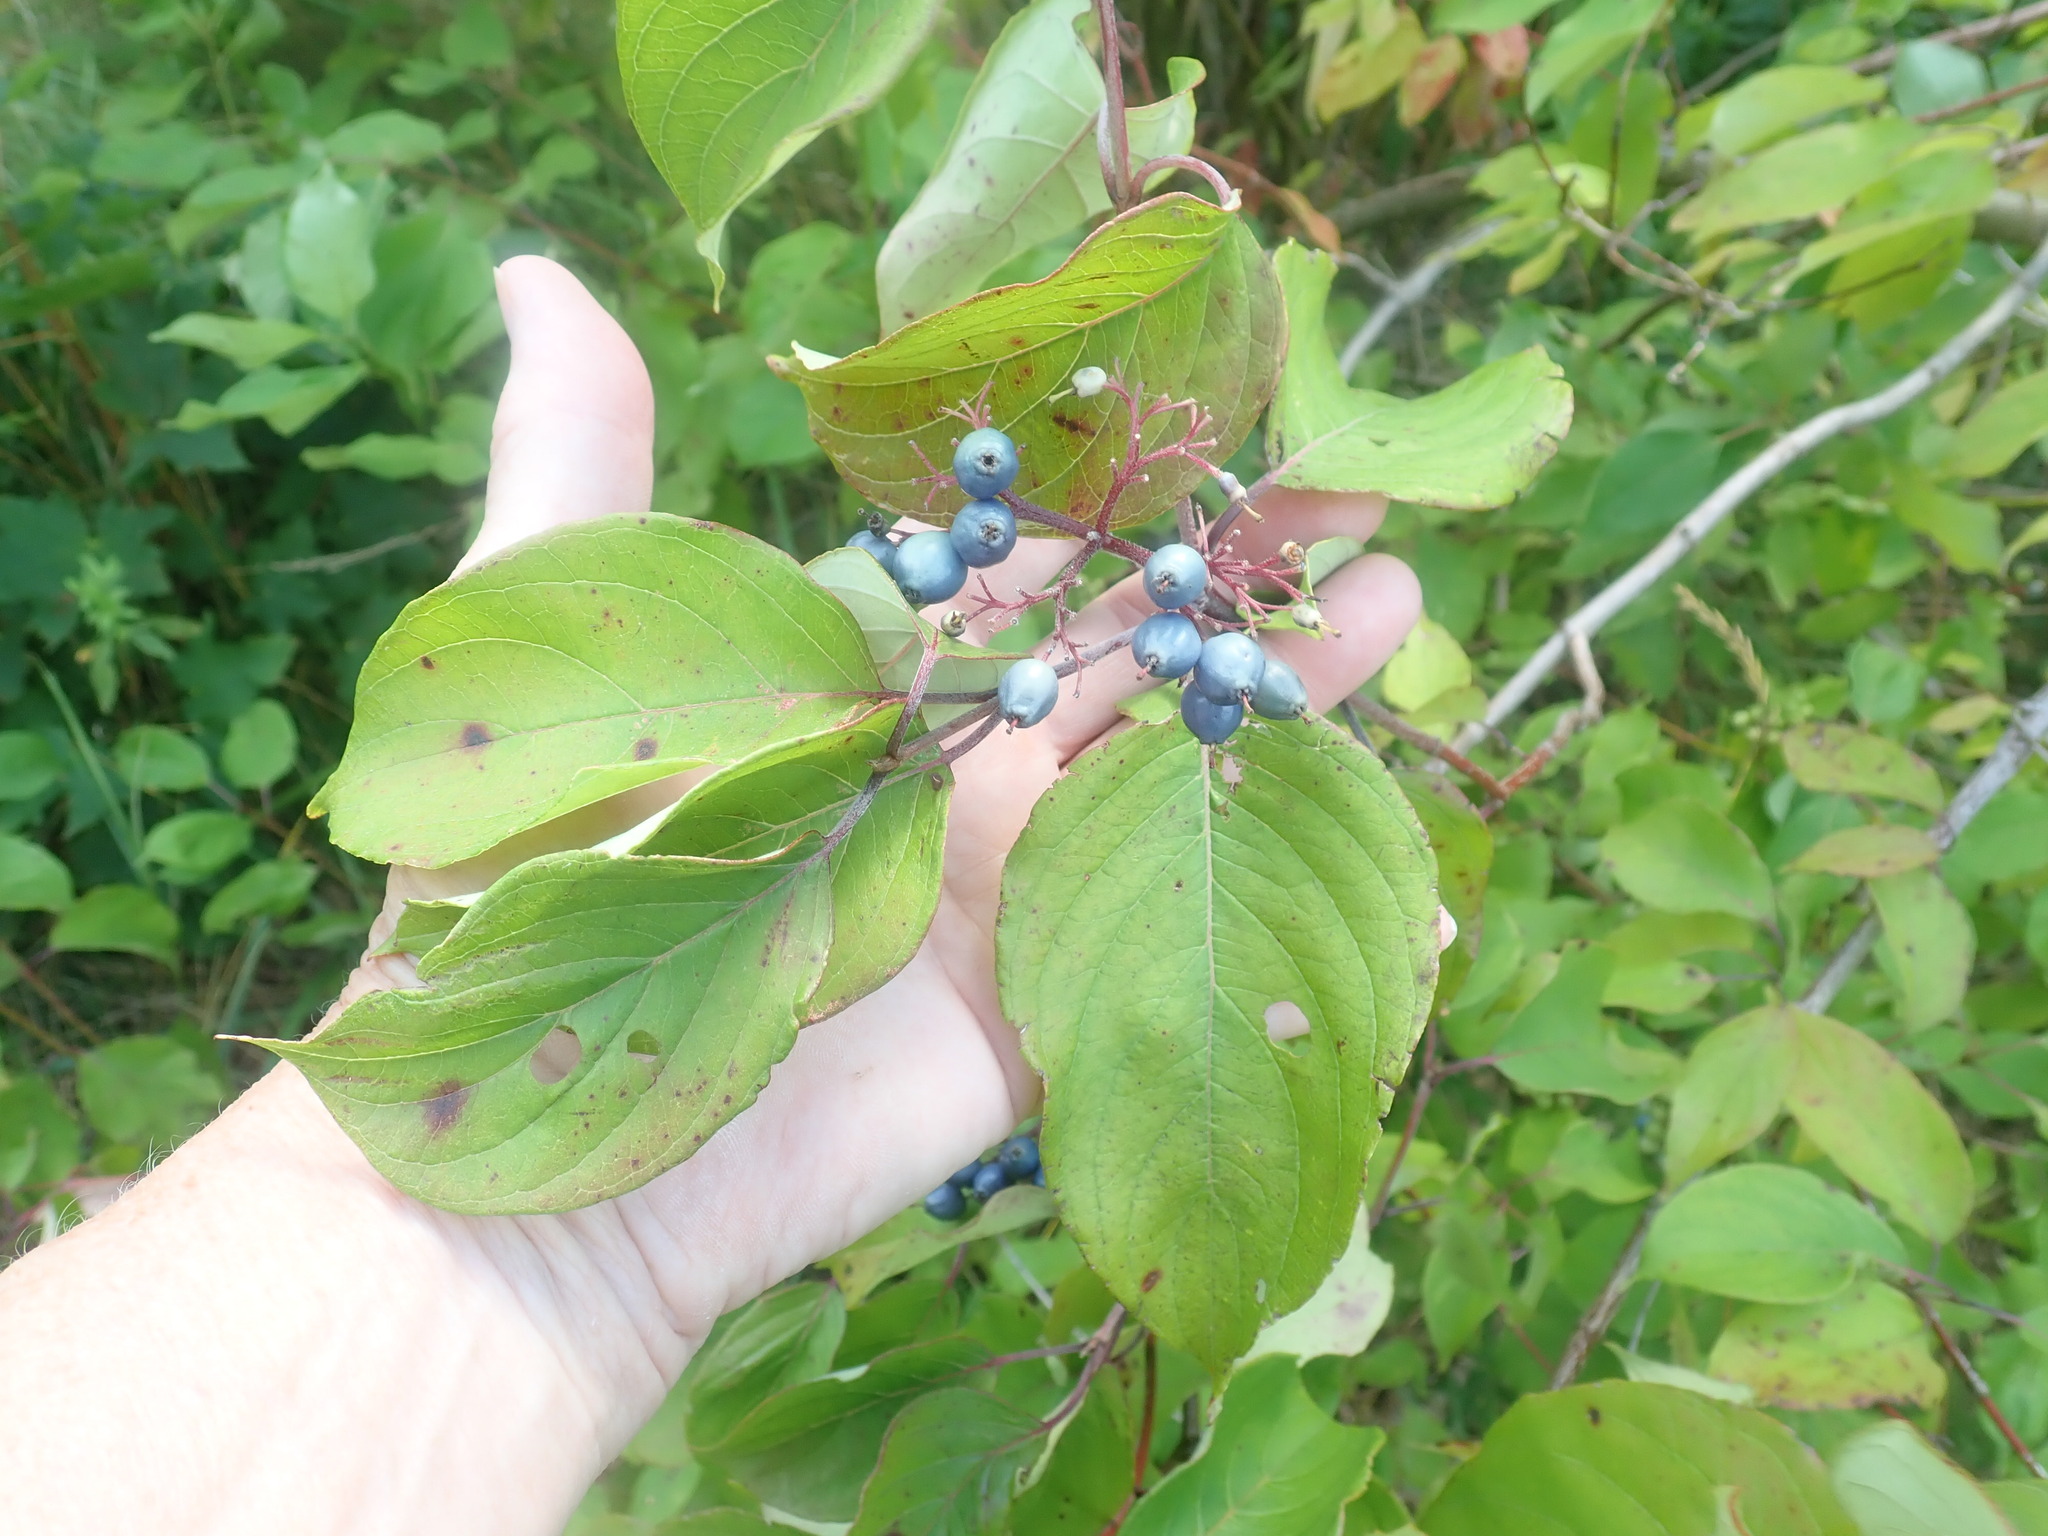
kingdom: Plantae
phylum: Tracheophyta
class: Magnoliopsida
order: Cornales
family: Cornaceae
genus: Cornus
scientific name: Cornus amomum
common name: Silky dogwood
